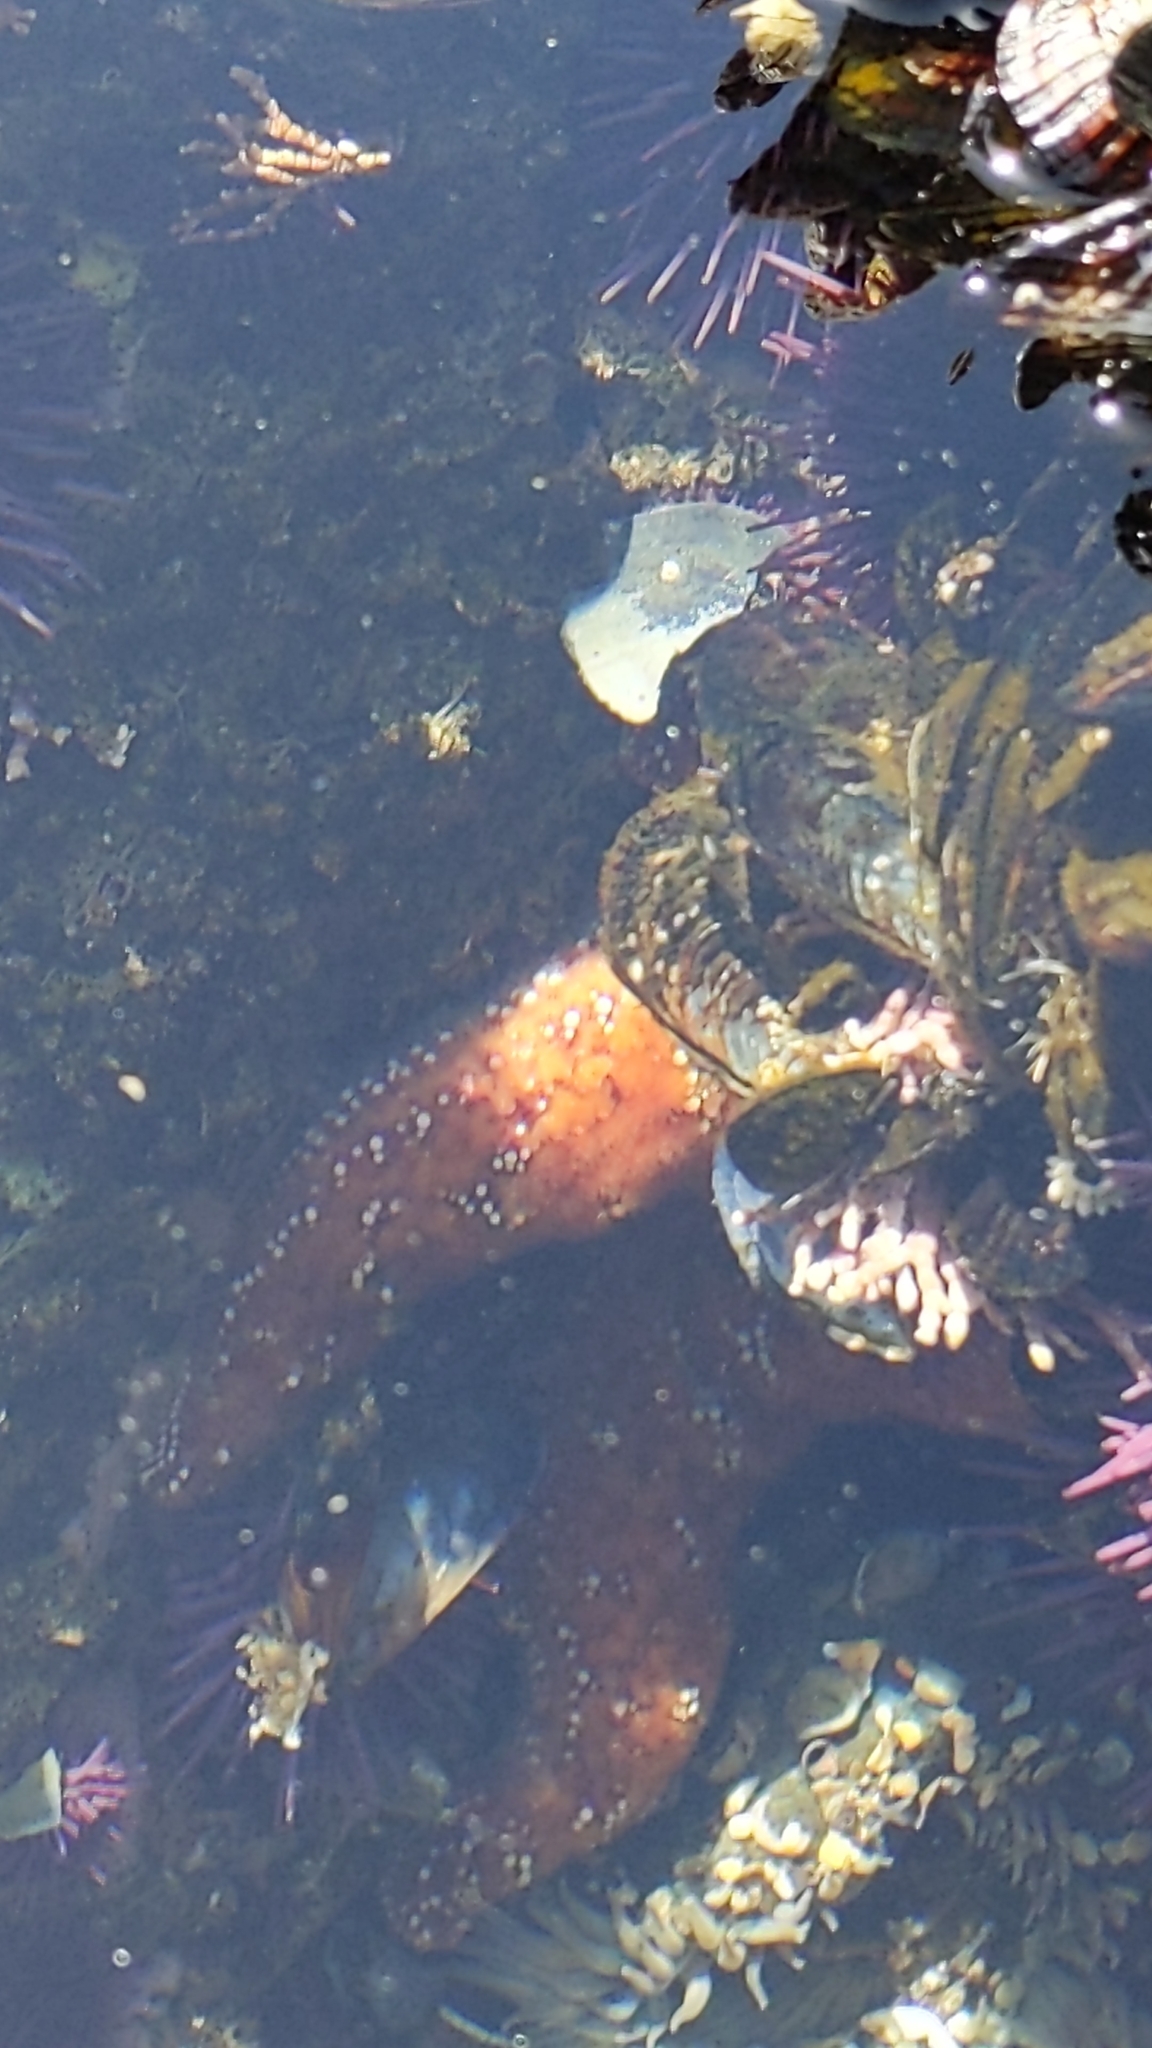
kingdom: Animalia
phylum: Echinodermata
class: Asteroidea
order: Forcipulatida
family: Asteriidae
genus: Pisaster
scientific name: Pisaster ochraceus
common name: Ochre stars
